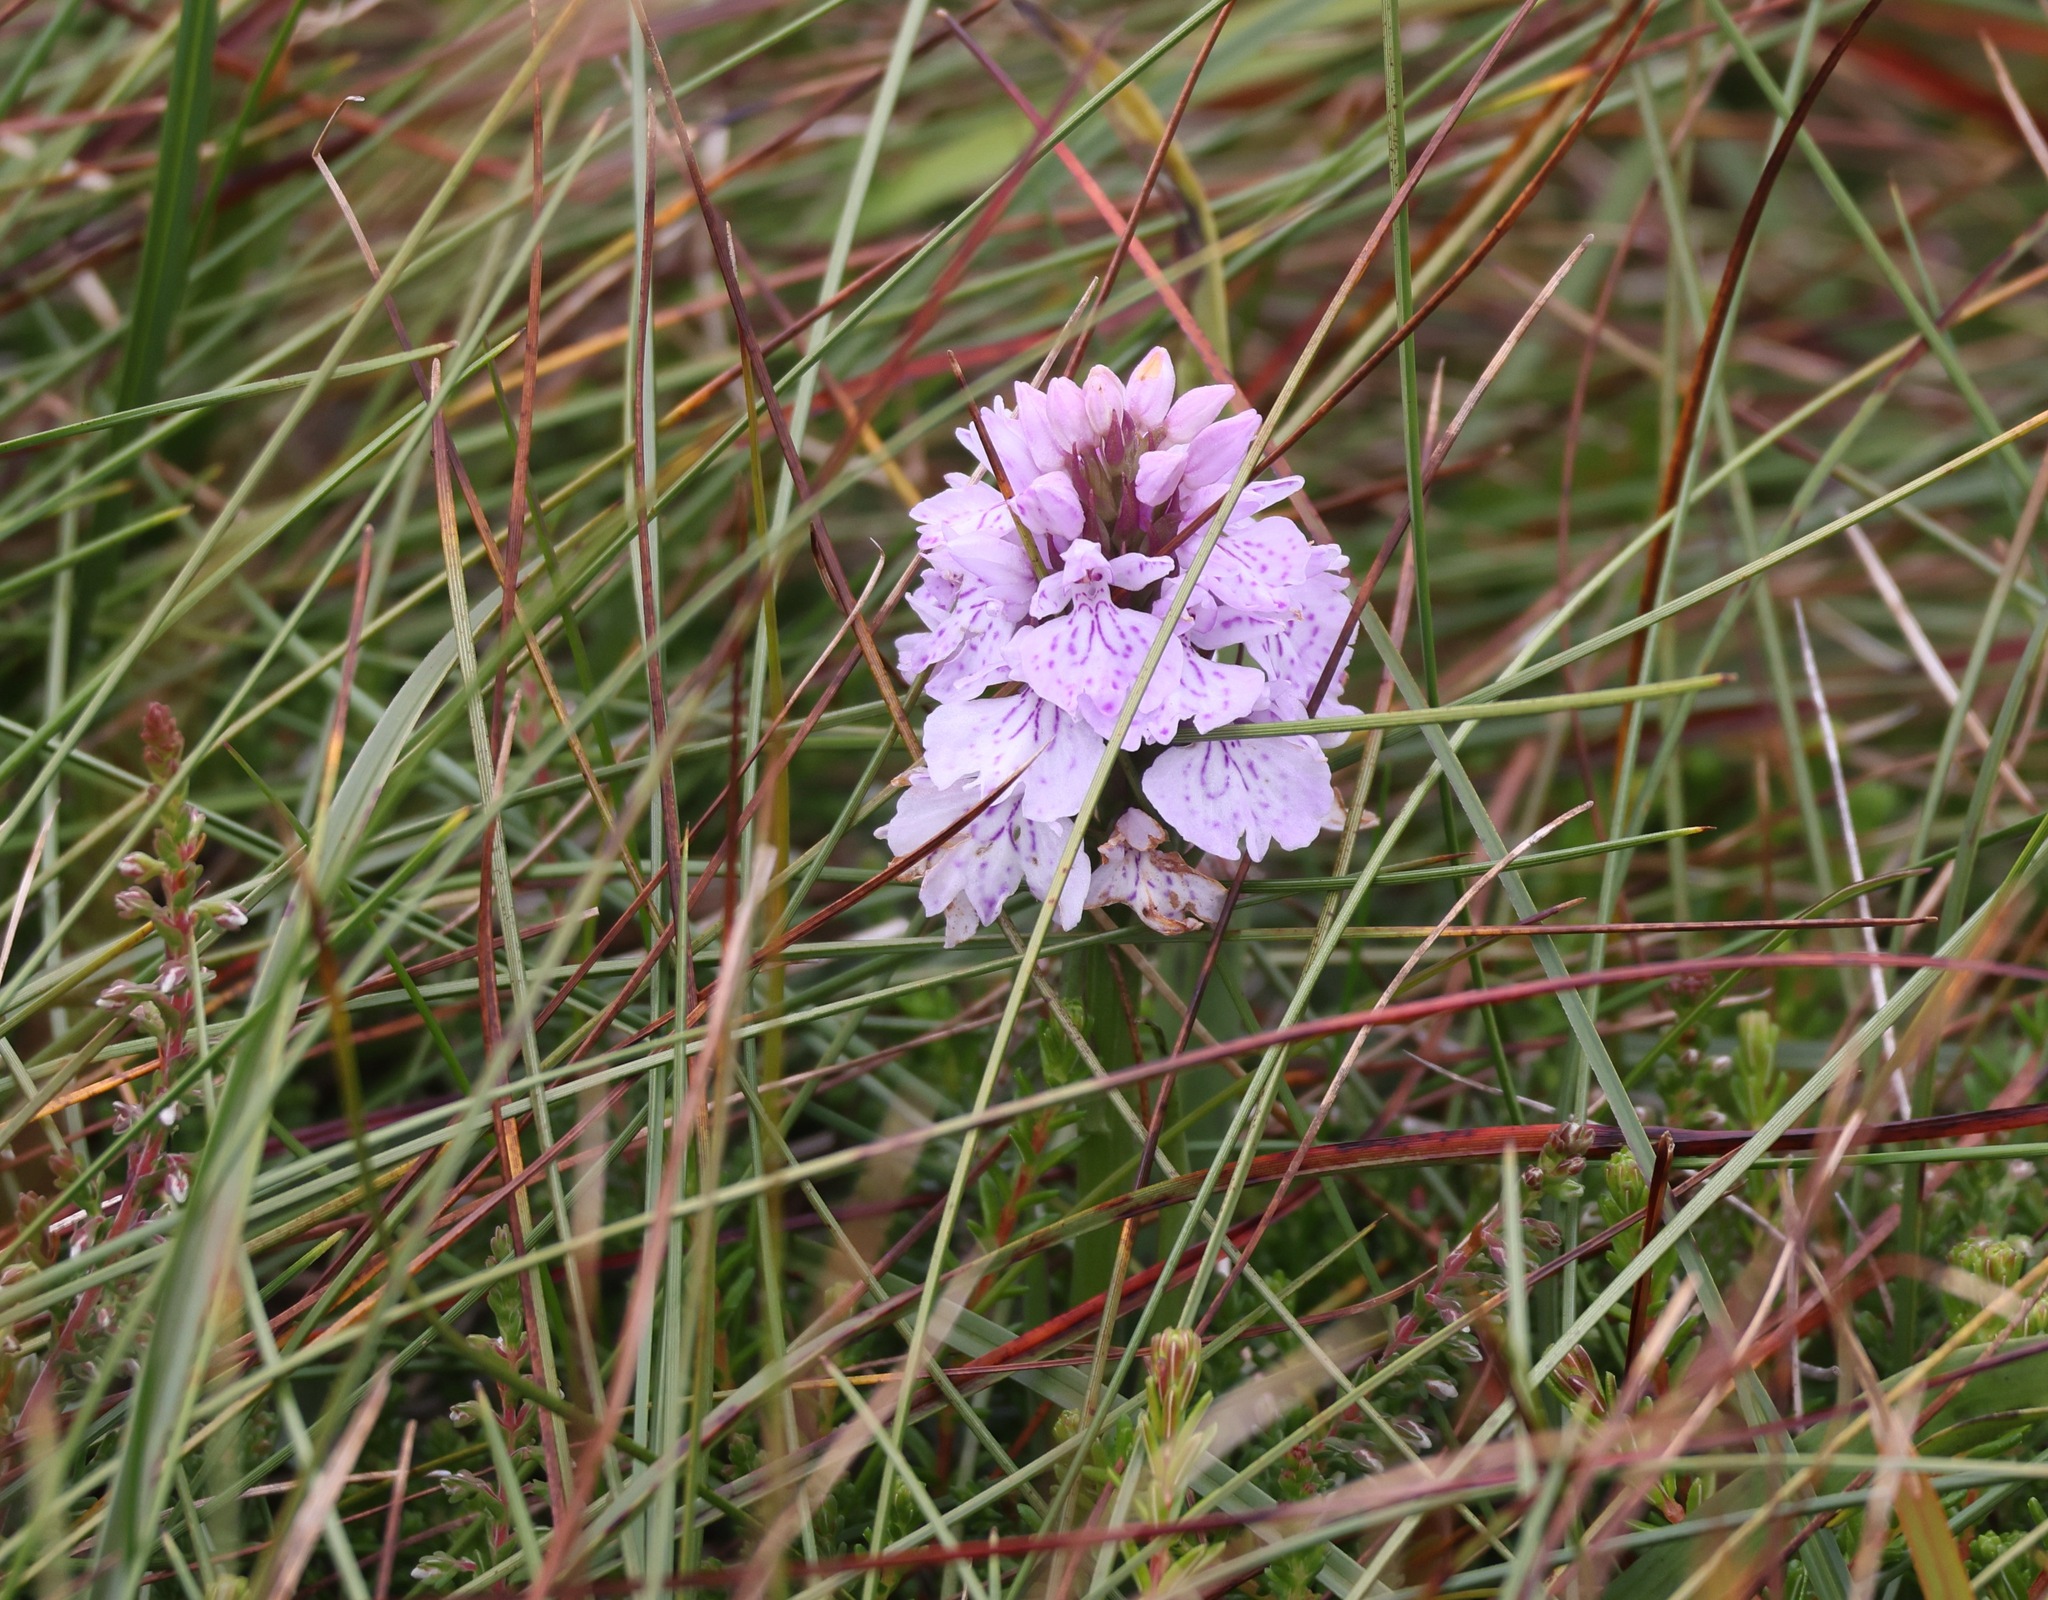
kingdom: Plantae
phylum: Tracheophyta
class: Liliopsida
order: Asparagales
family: Orchidaceae
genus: Dactylorhiza
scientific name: Dactylorhiza maculata
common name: Heath spotted-orchid
